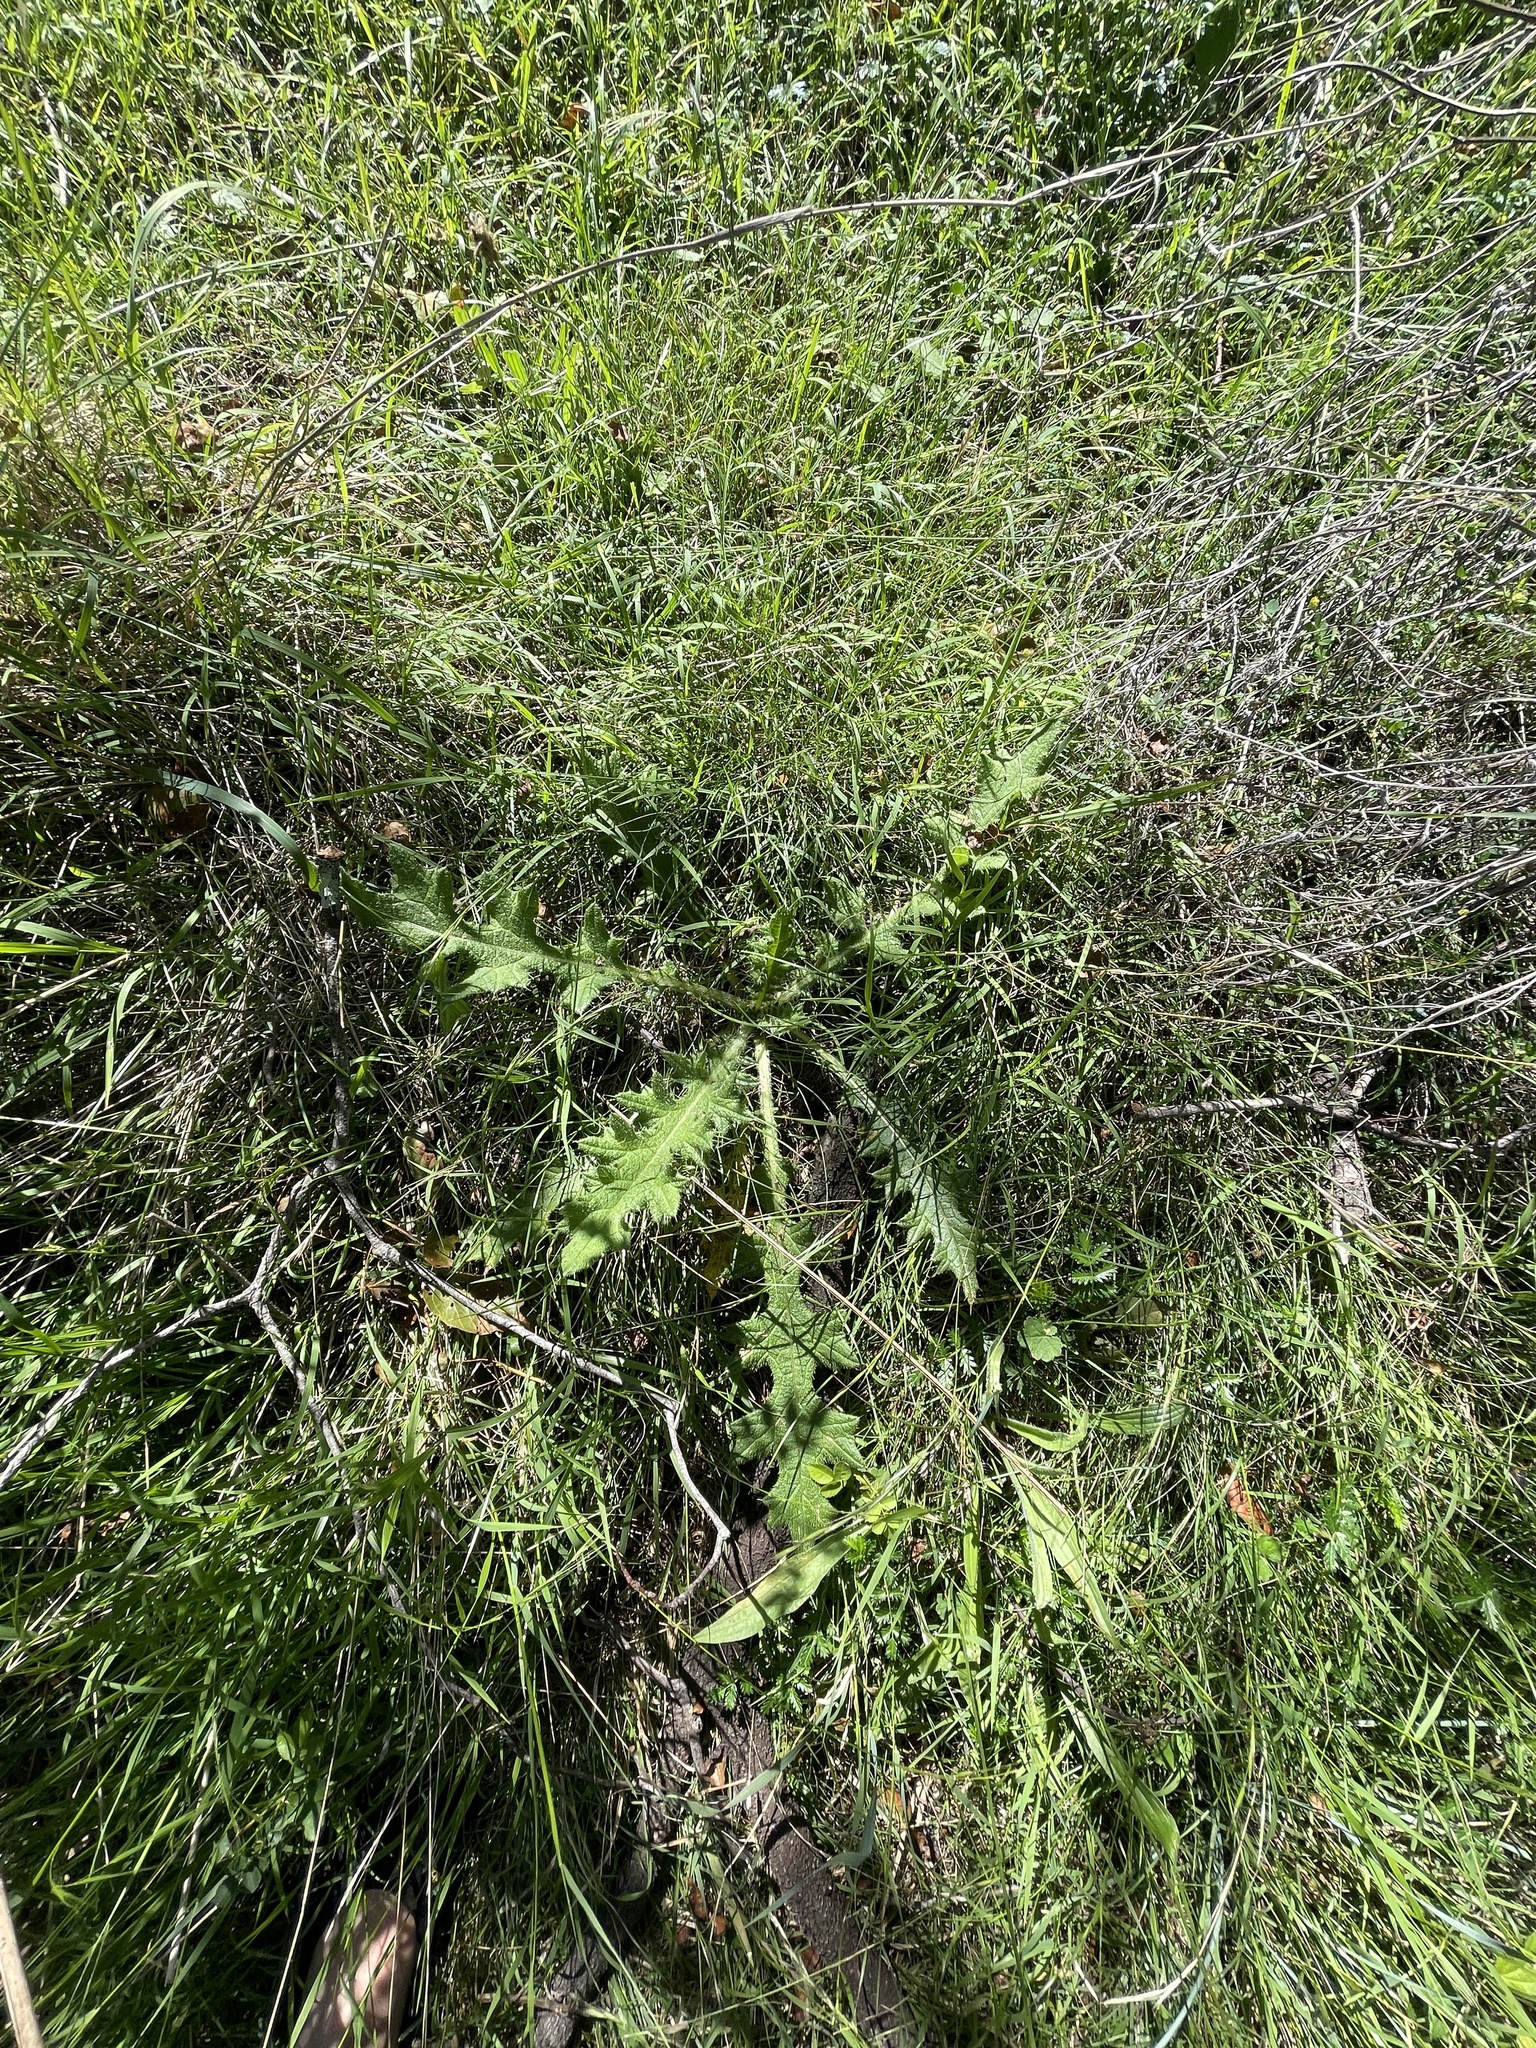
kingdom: Plantae
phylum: Tracheophyta
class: Magnoliopsida
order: Asterales
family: Asteraceae
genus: Cirsium
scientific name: Cirsium vulgare
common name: Bull thistle
